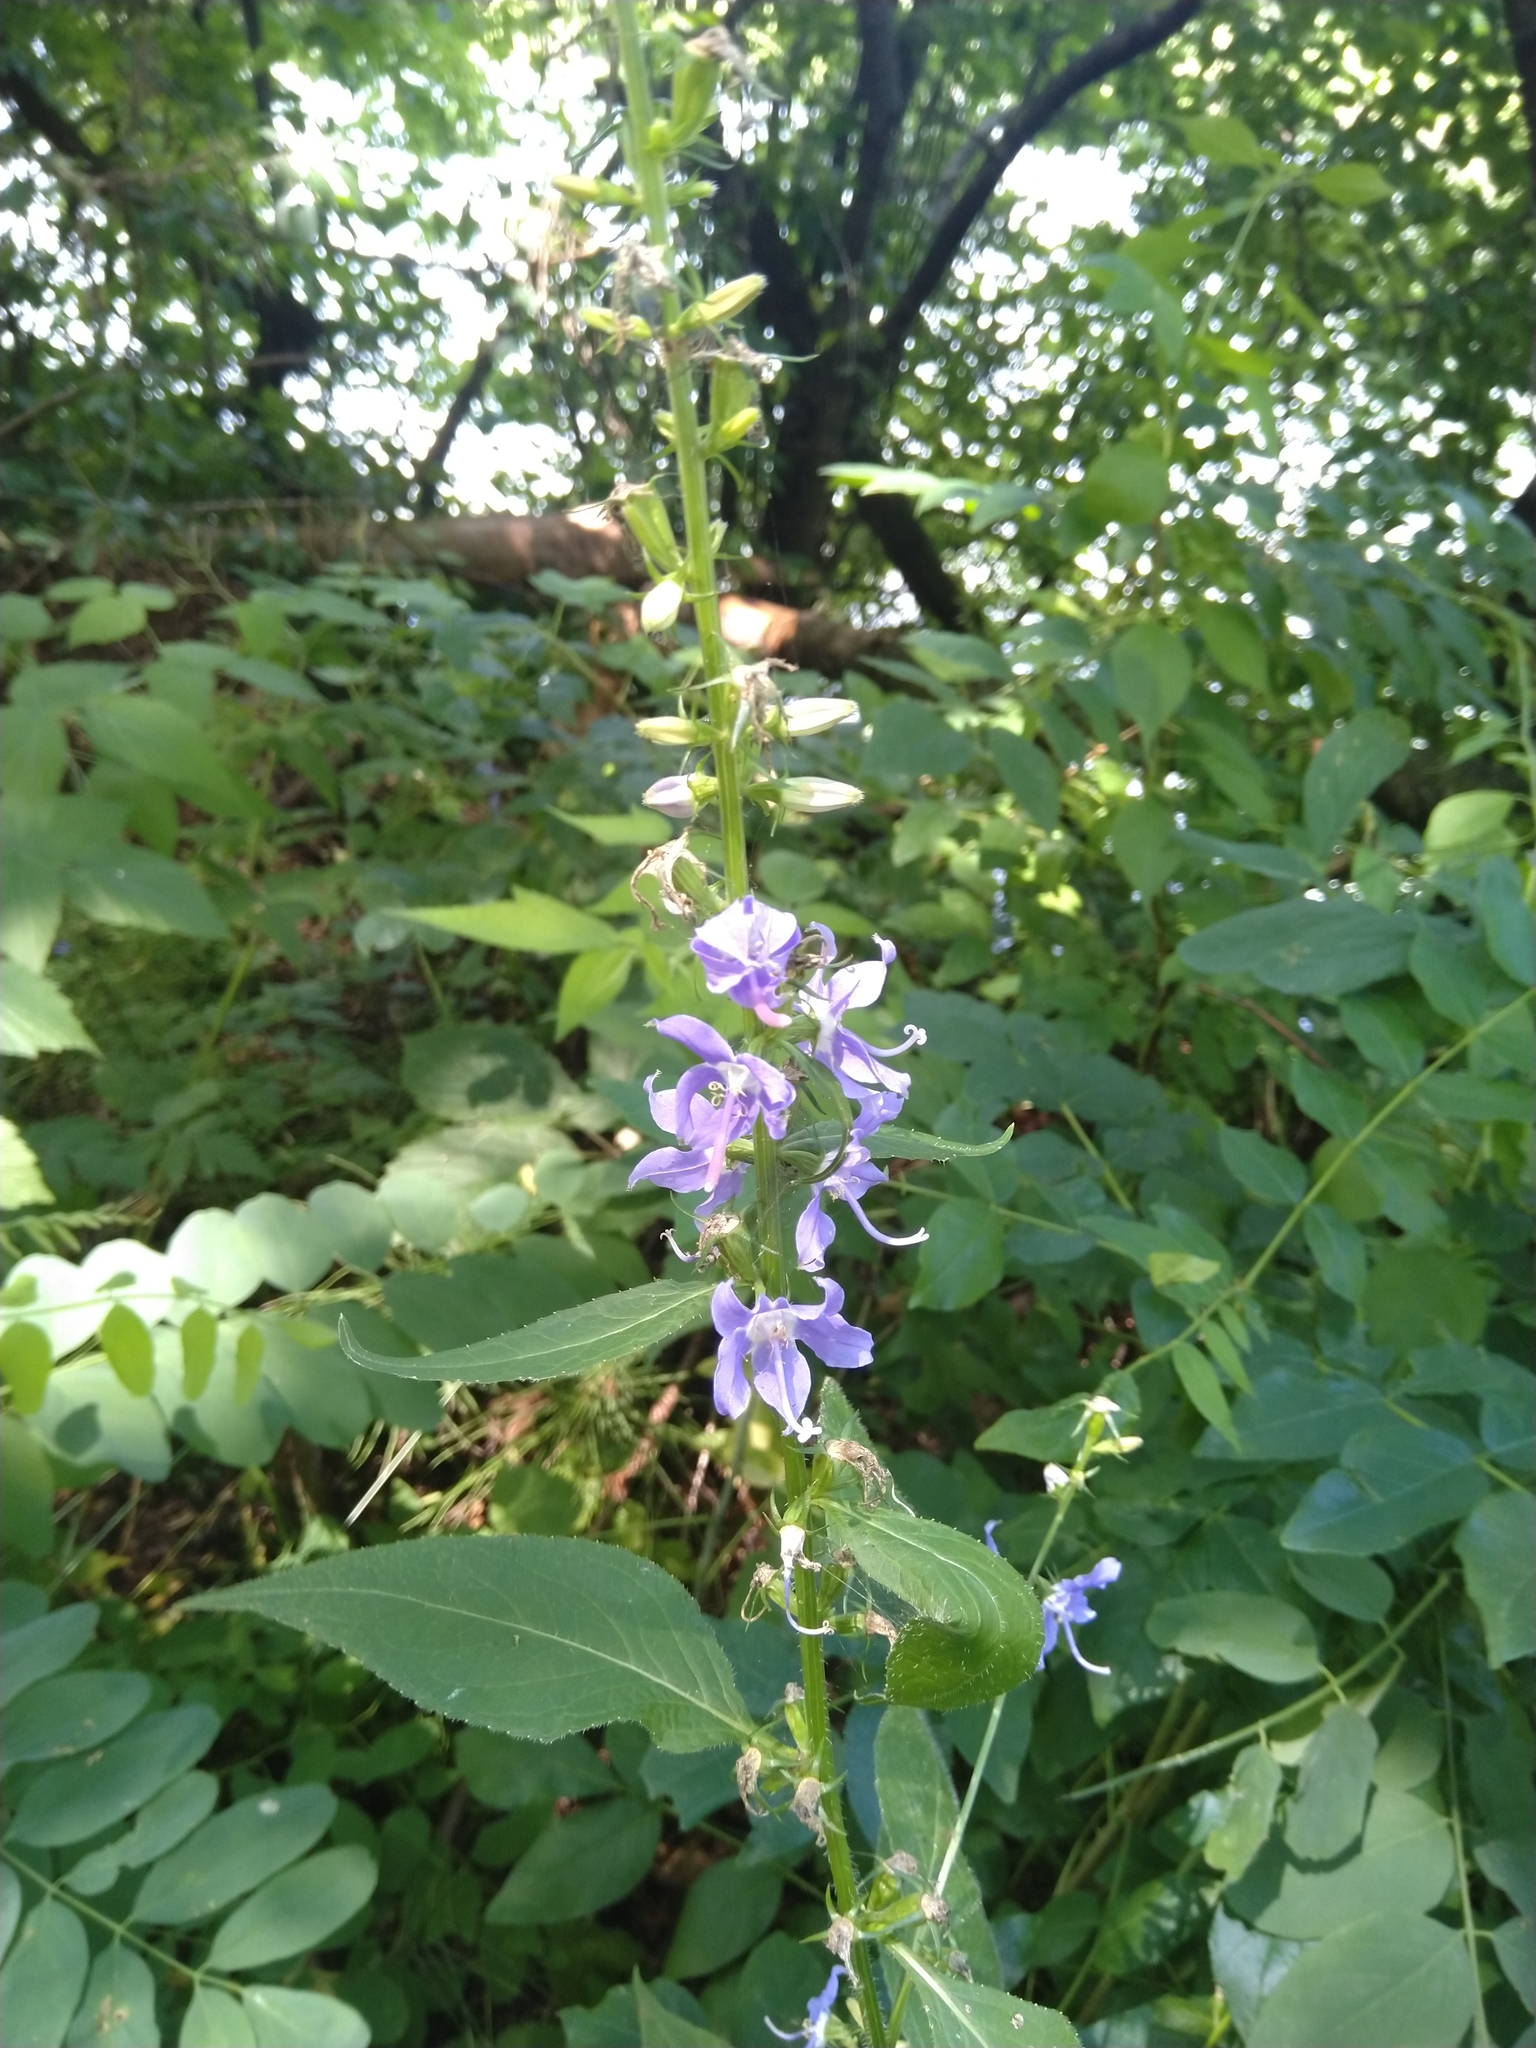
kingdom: Plantae
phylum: Tracheophyta
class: Magnoliopsida
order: Asterales
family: Campanulaceae
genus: Campanulastrum
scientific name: Campanulastrum americanum
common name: American bellflower
